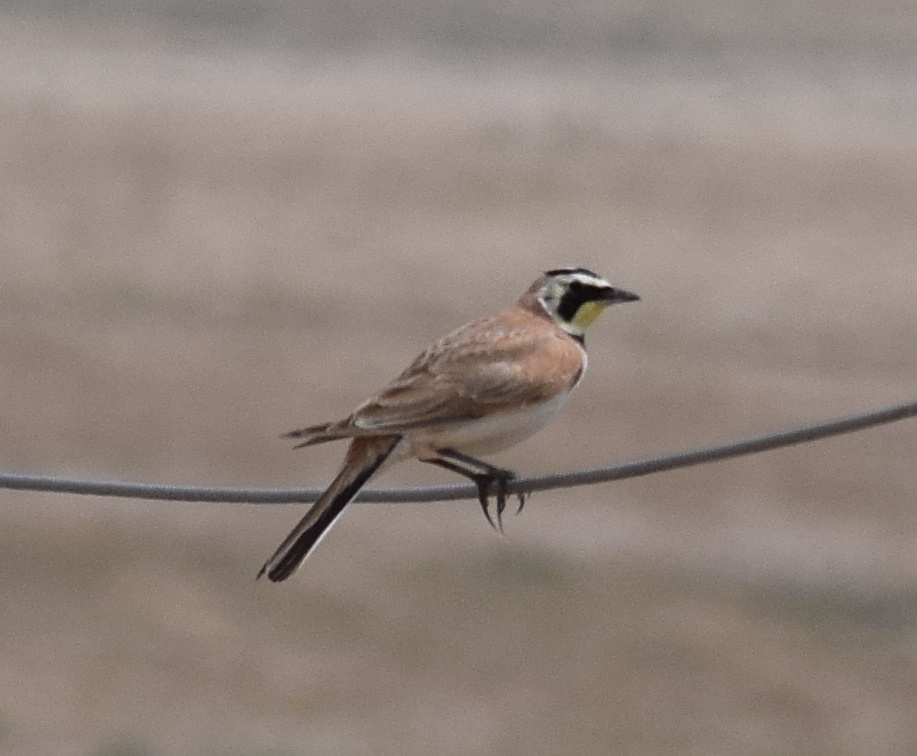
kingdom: Animalia
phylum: Chordata
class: Aves
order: Passeriformes
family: Alaudidae
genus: Eremophila
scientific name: Eremophila alpestris
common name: Horned lark
